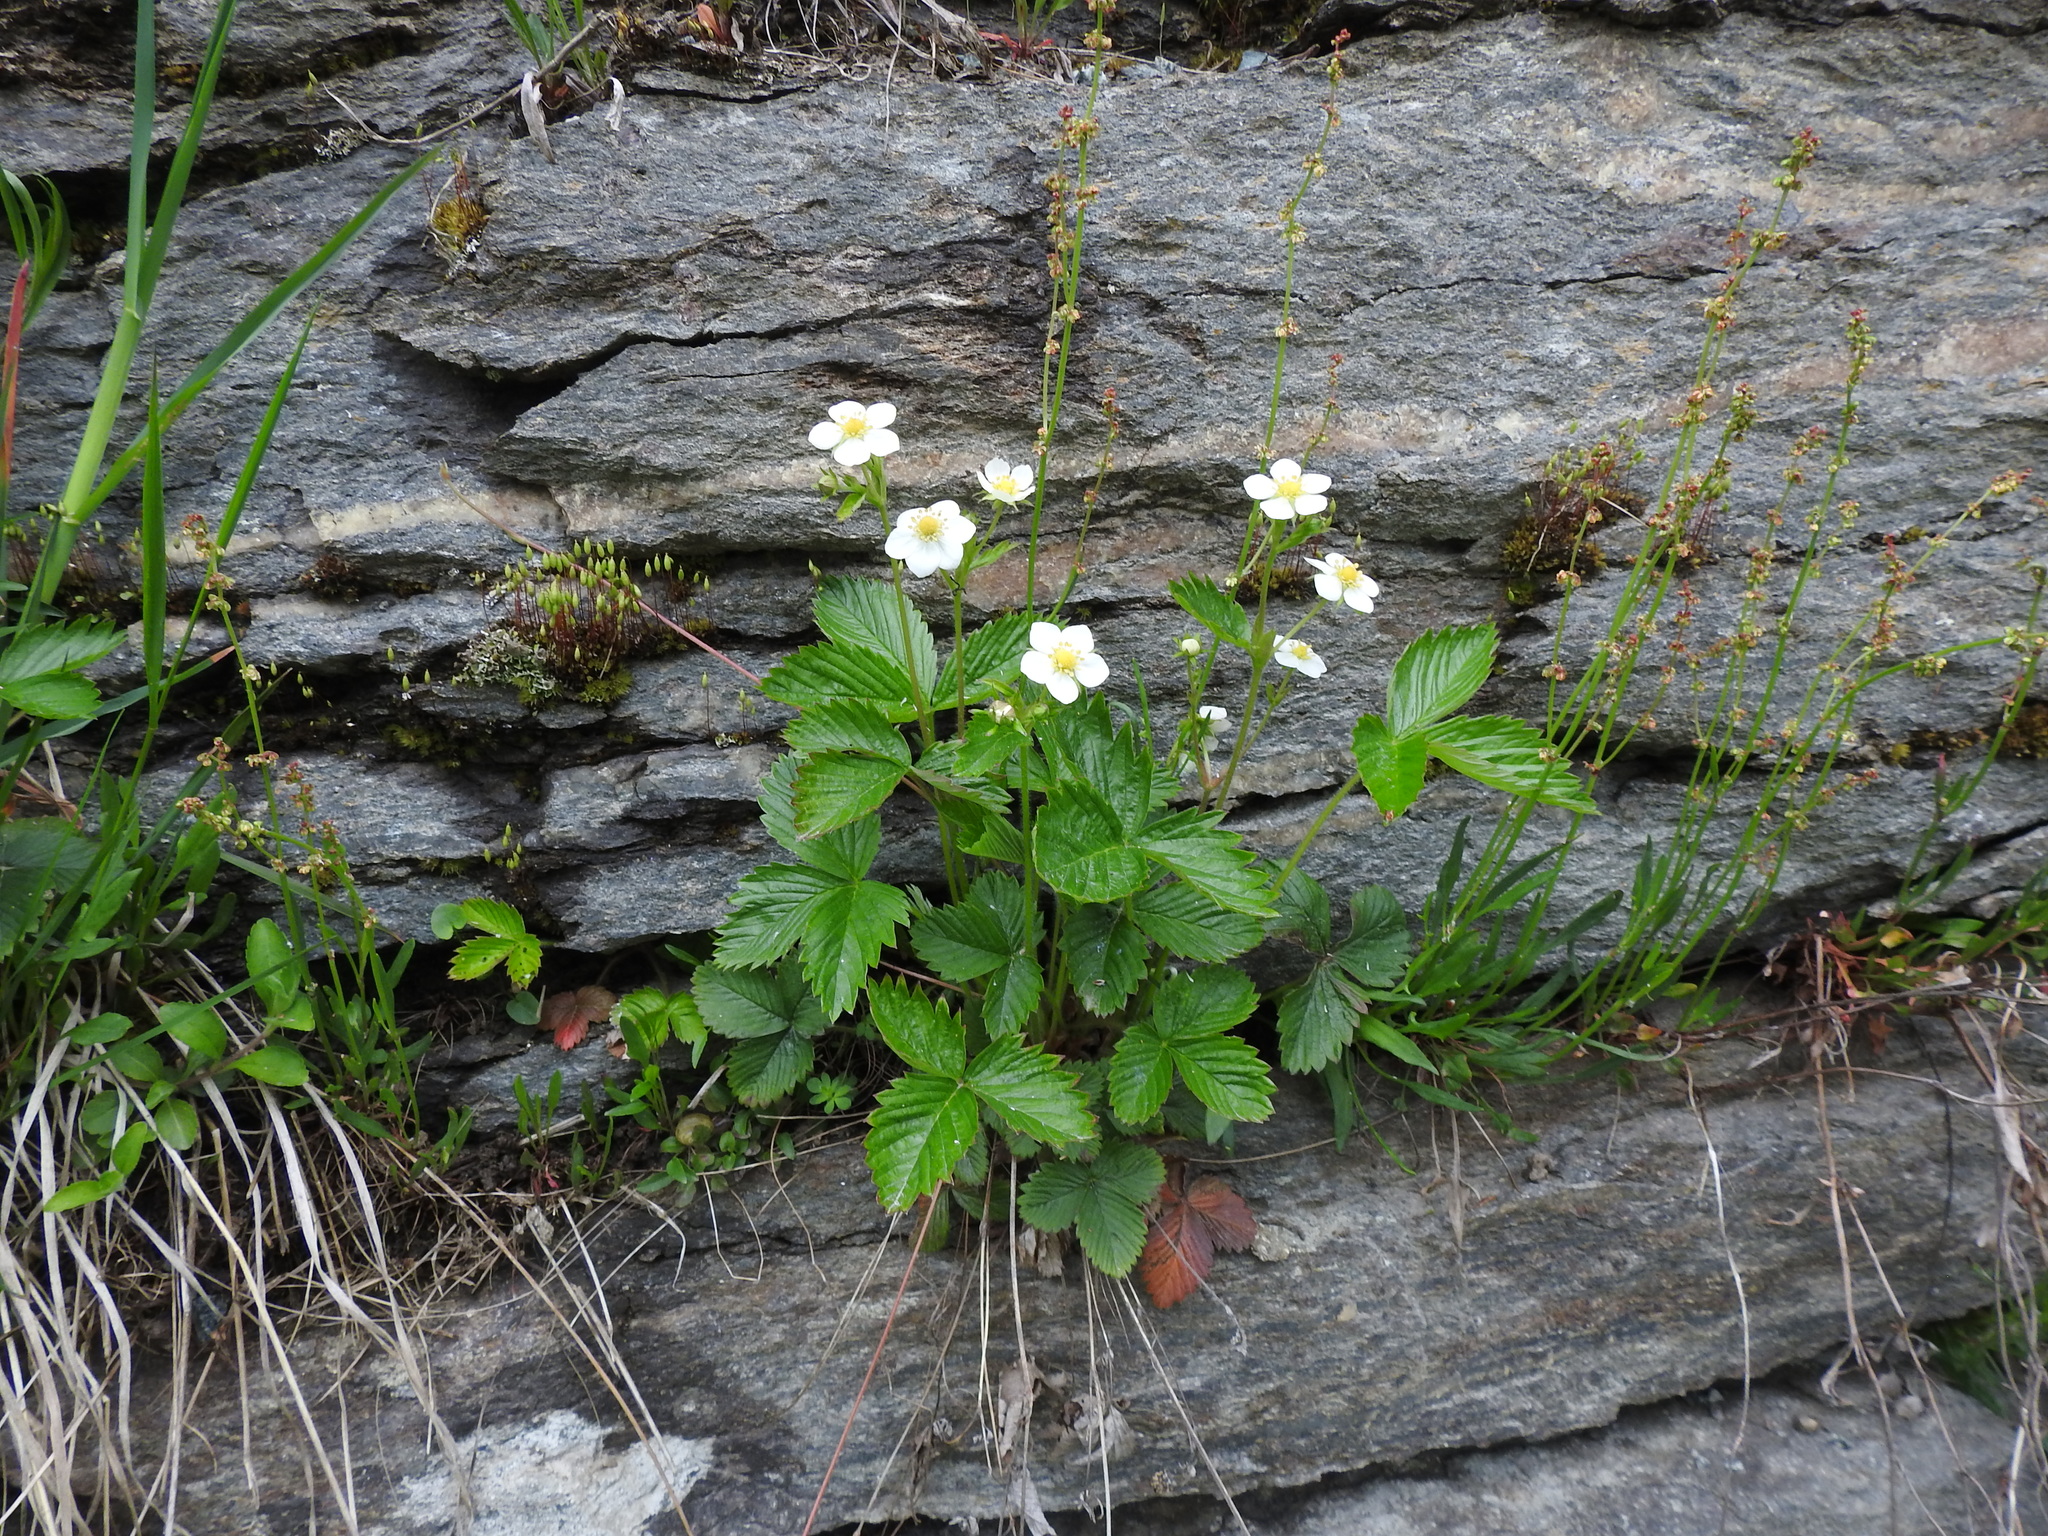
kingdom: Plantae
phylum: Tracheophyta
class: Magnoliopsida
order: Rosales
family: Rosaceae
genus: Fragaria
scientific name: Fragaria vesca
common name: Wild strawberry
